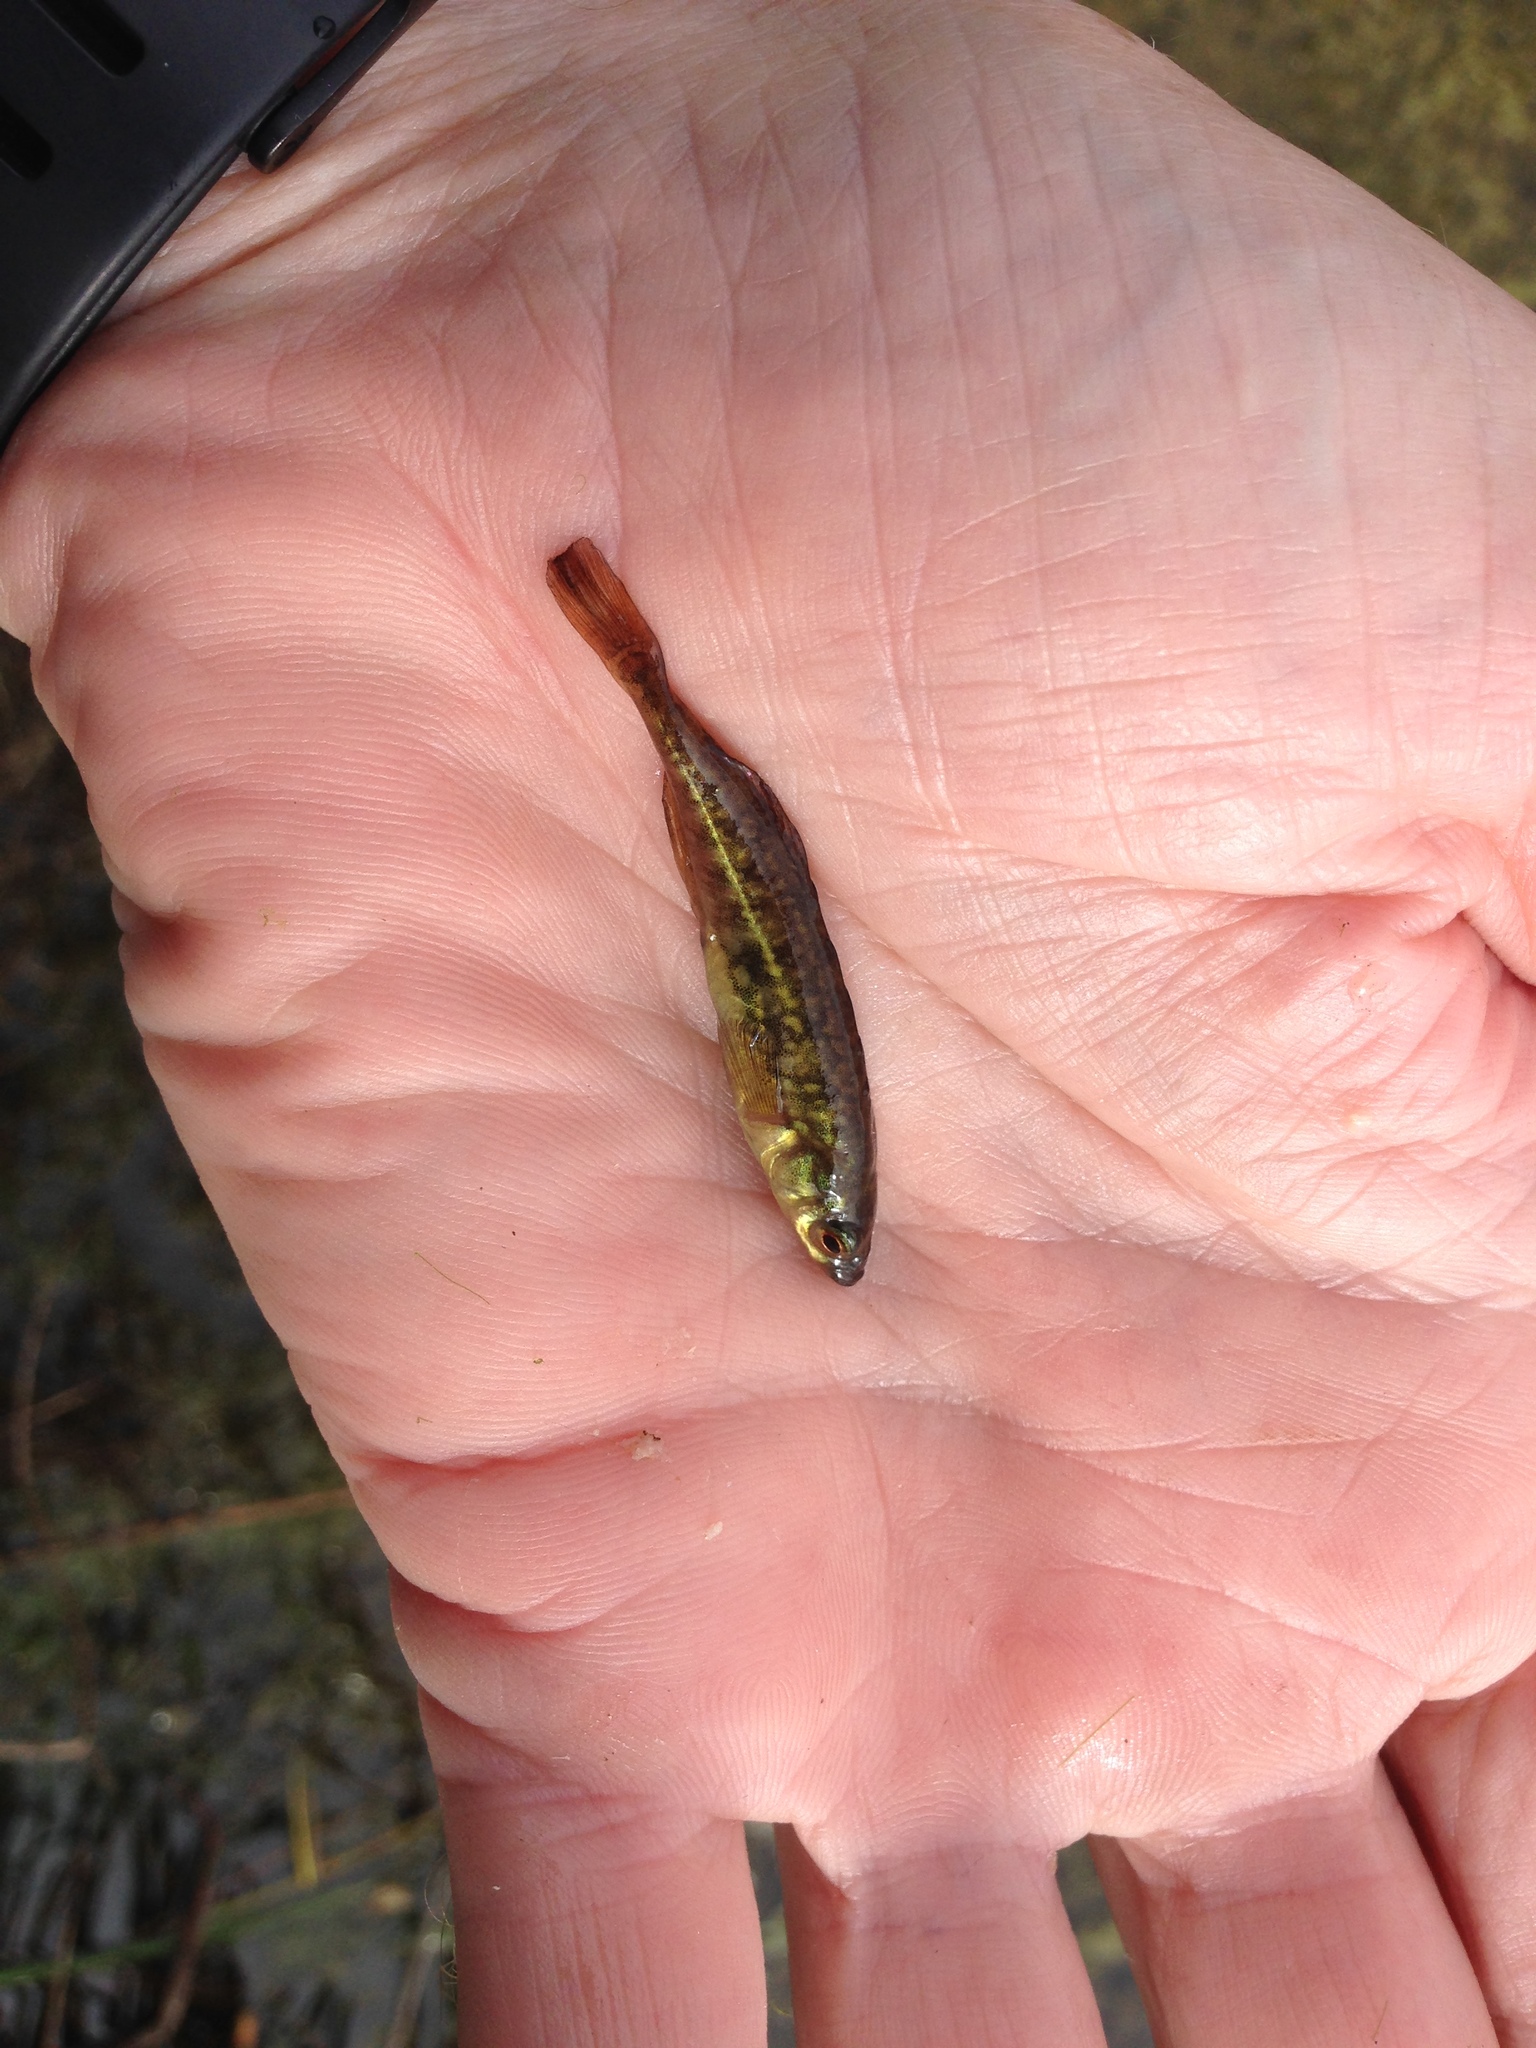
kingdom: Animalia
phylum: Chordata
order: Gasterosteiformes
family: Gasterosteidae
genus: Culaea
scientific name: Culaea inconstans
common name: Brook stickleback
